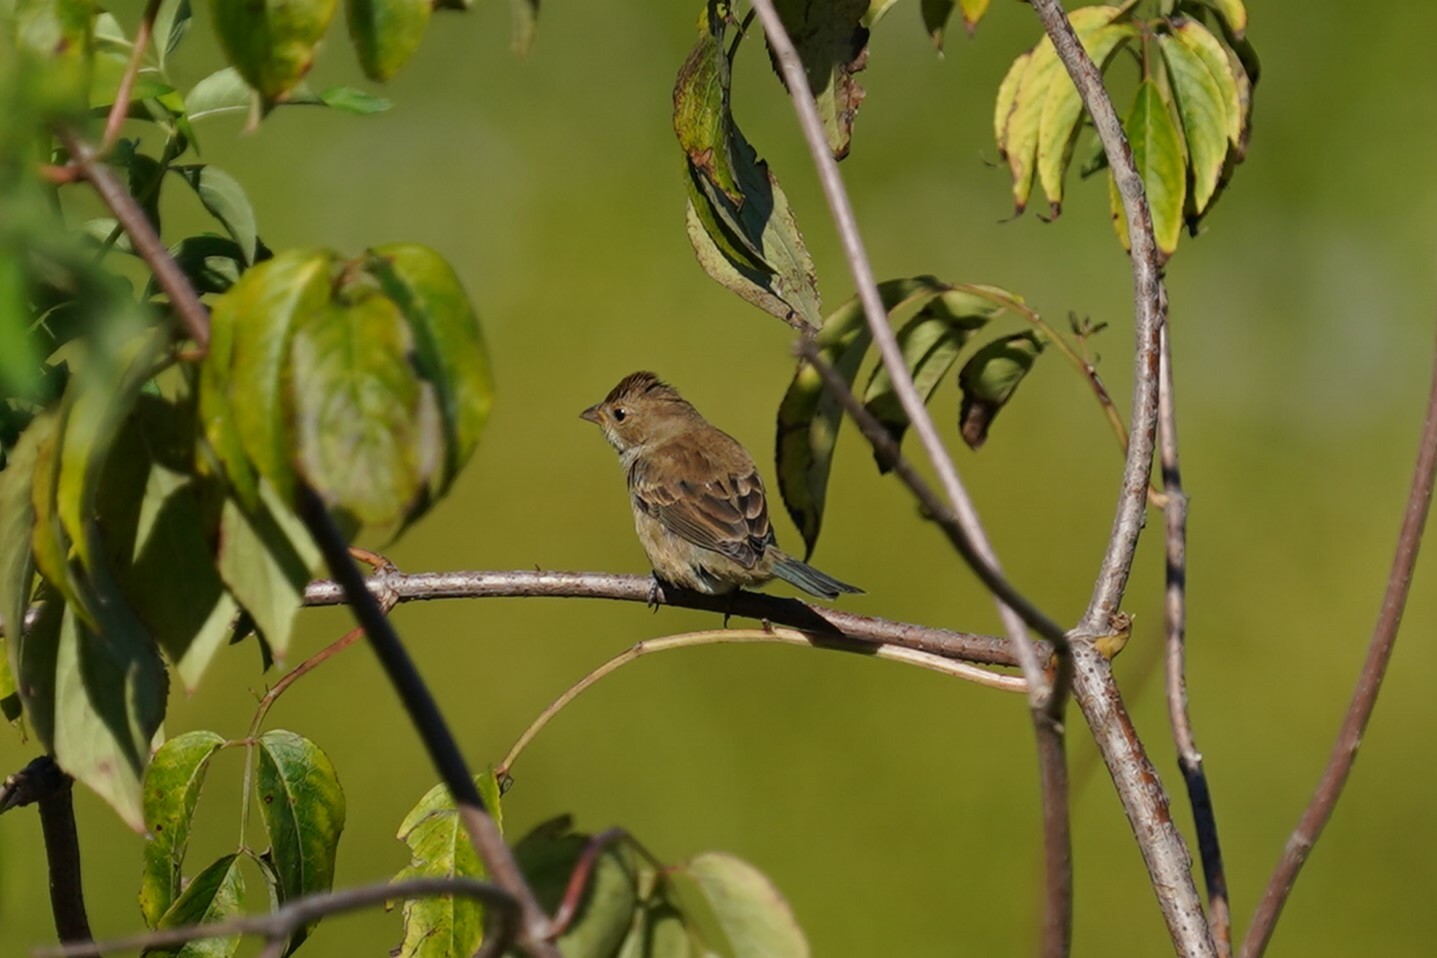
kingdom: Animalia
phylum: Chordata
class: Aves
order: Passeriformes
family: Cardinalidae
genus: Passerina
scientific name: Passerina cyanea
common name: Indigo bunting
